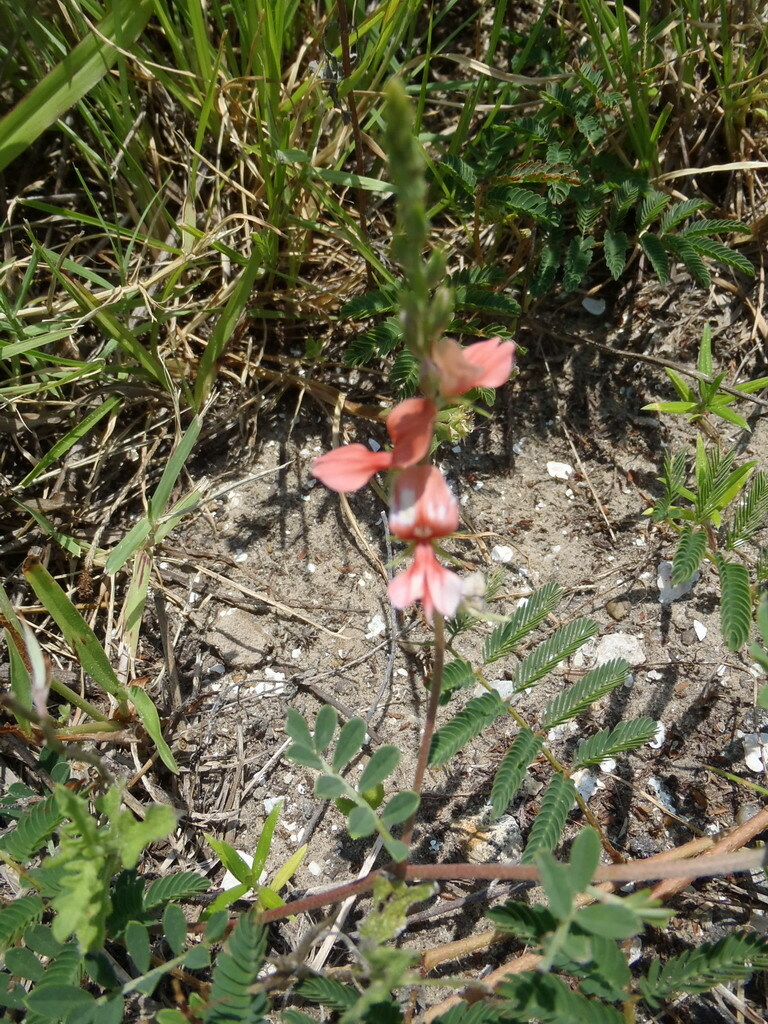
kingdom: Plantae
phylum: Tracheophyta
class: Magnoliopsida
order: Fabales
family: Fabaceae
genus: Indigofera
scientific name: Indigofera miniata
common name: Coast indigo
